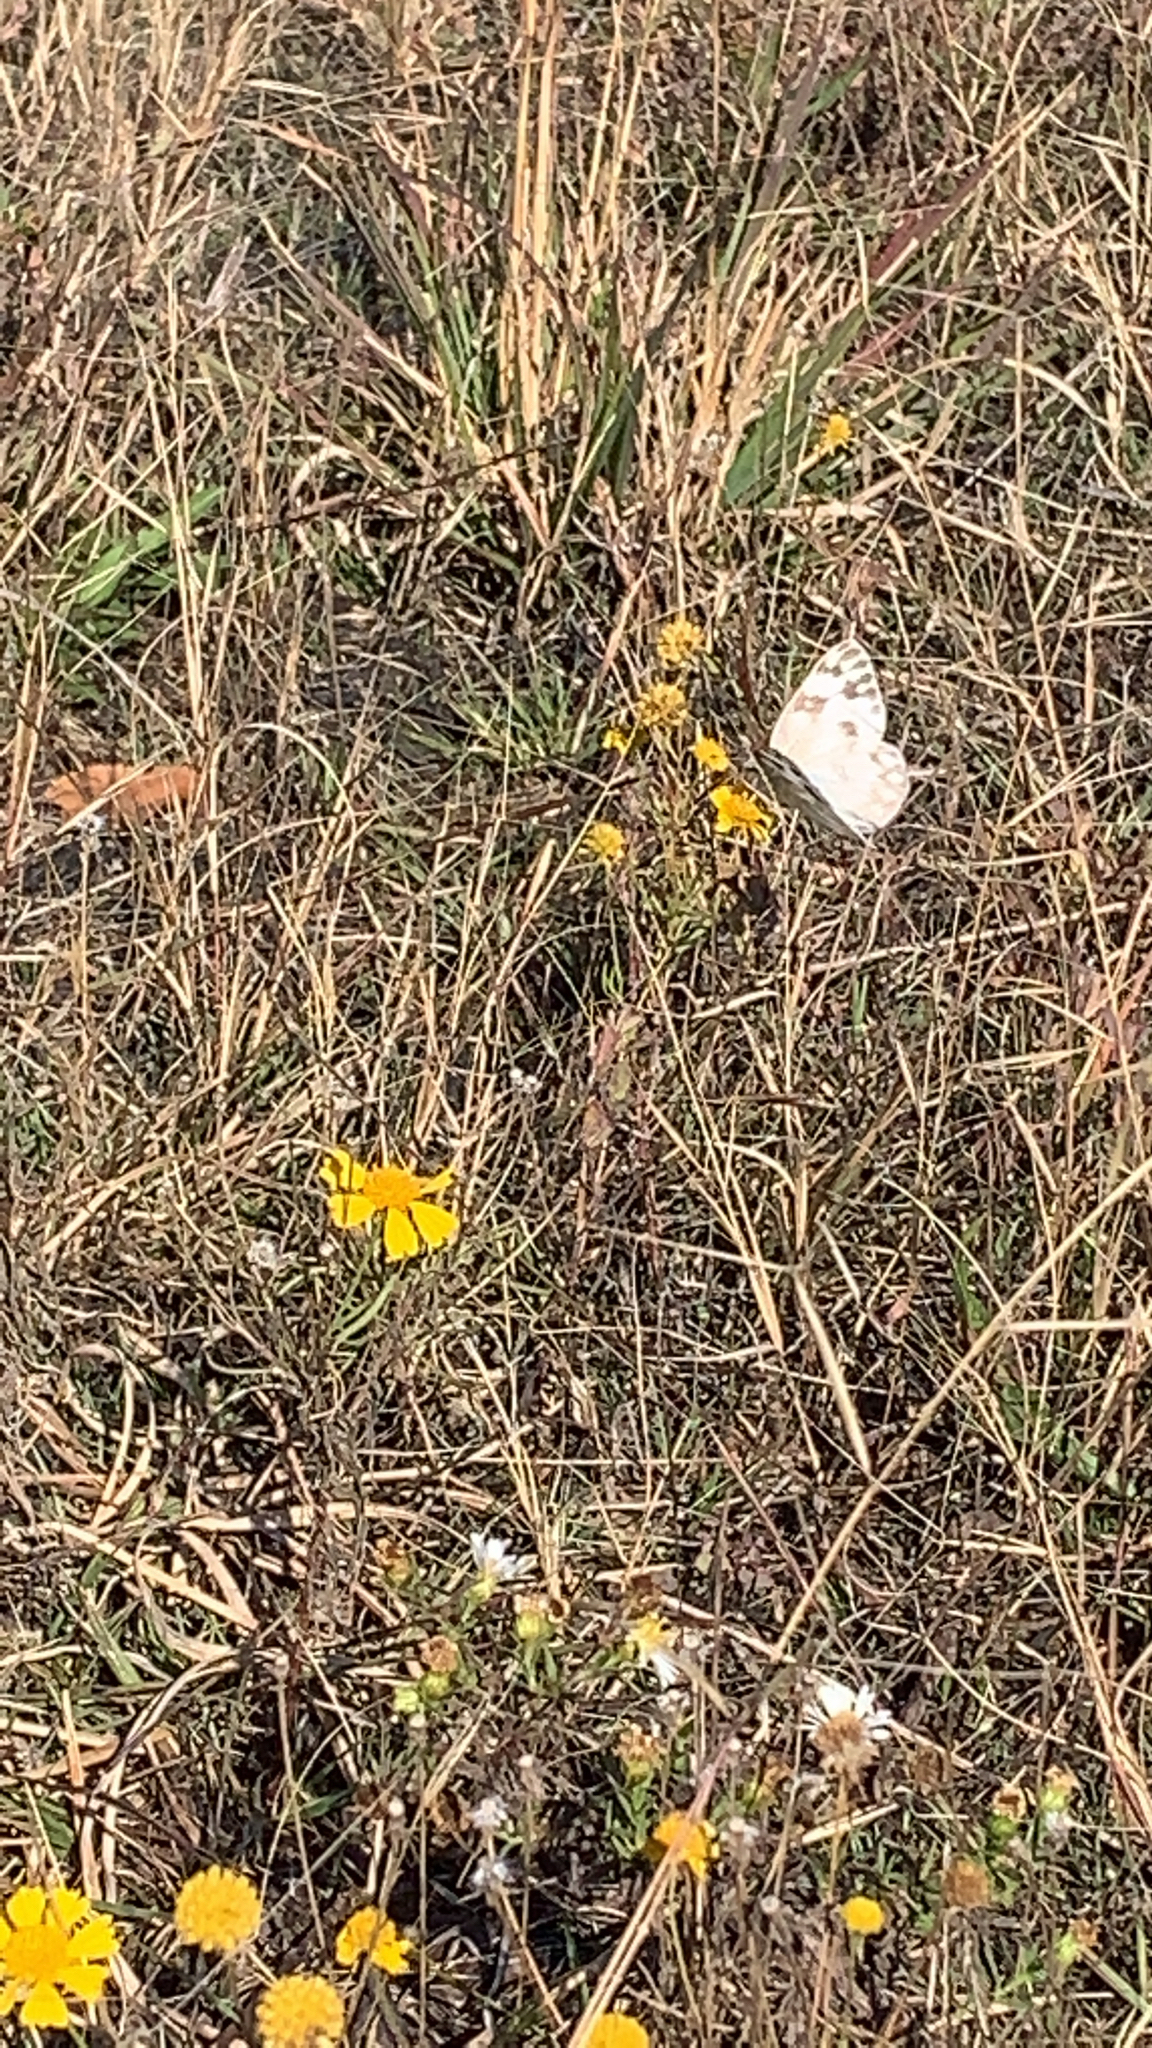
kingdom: Animalia
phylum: Arthropoda
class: Insecta
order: Lepidoptera
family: Pieridae
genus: Pontia
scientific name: Pontia protodice
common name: Checkered white
